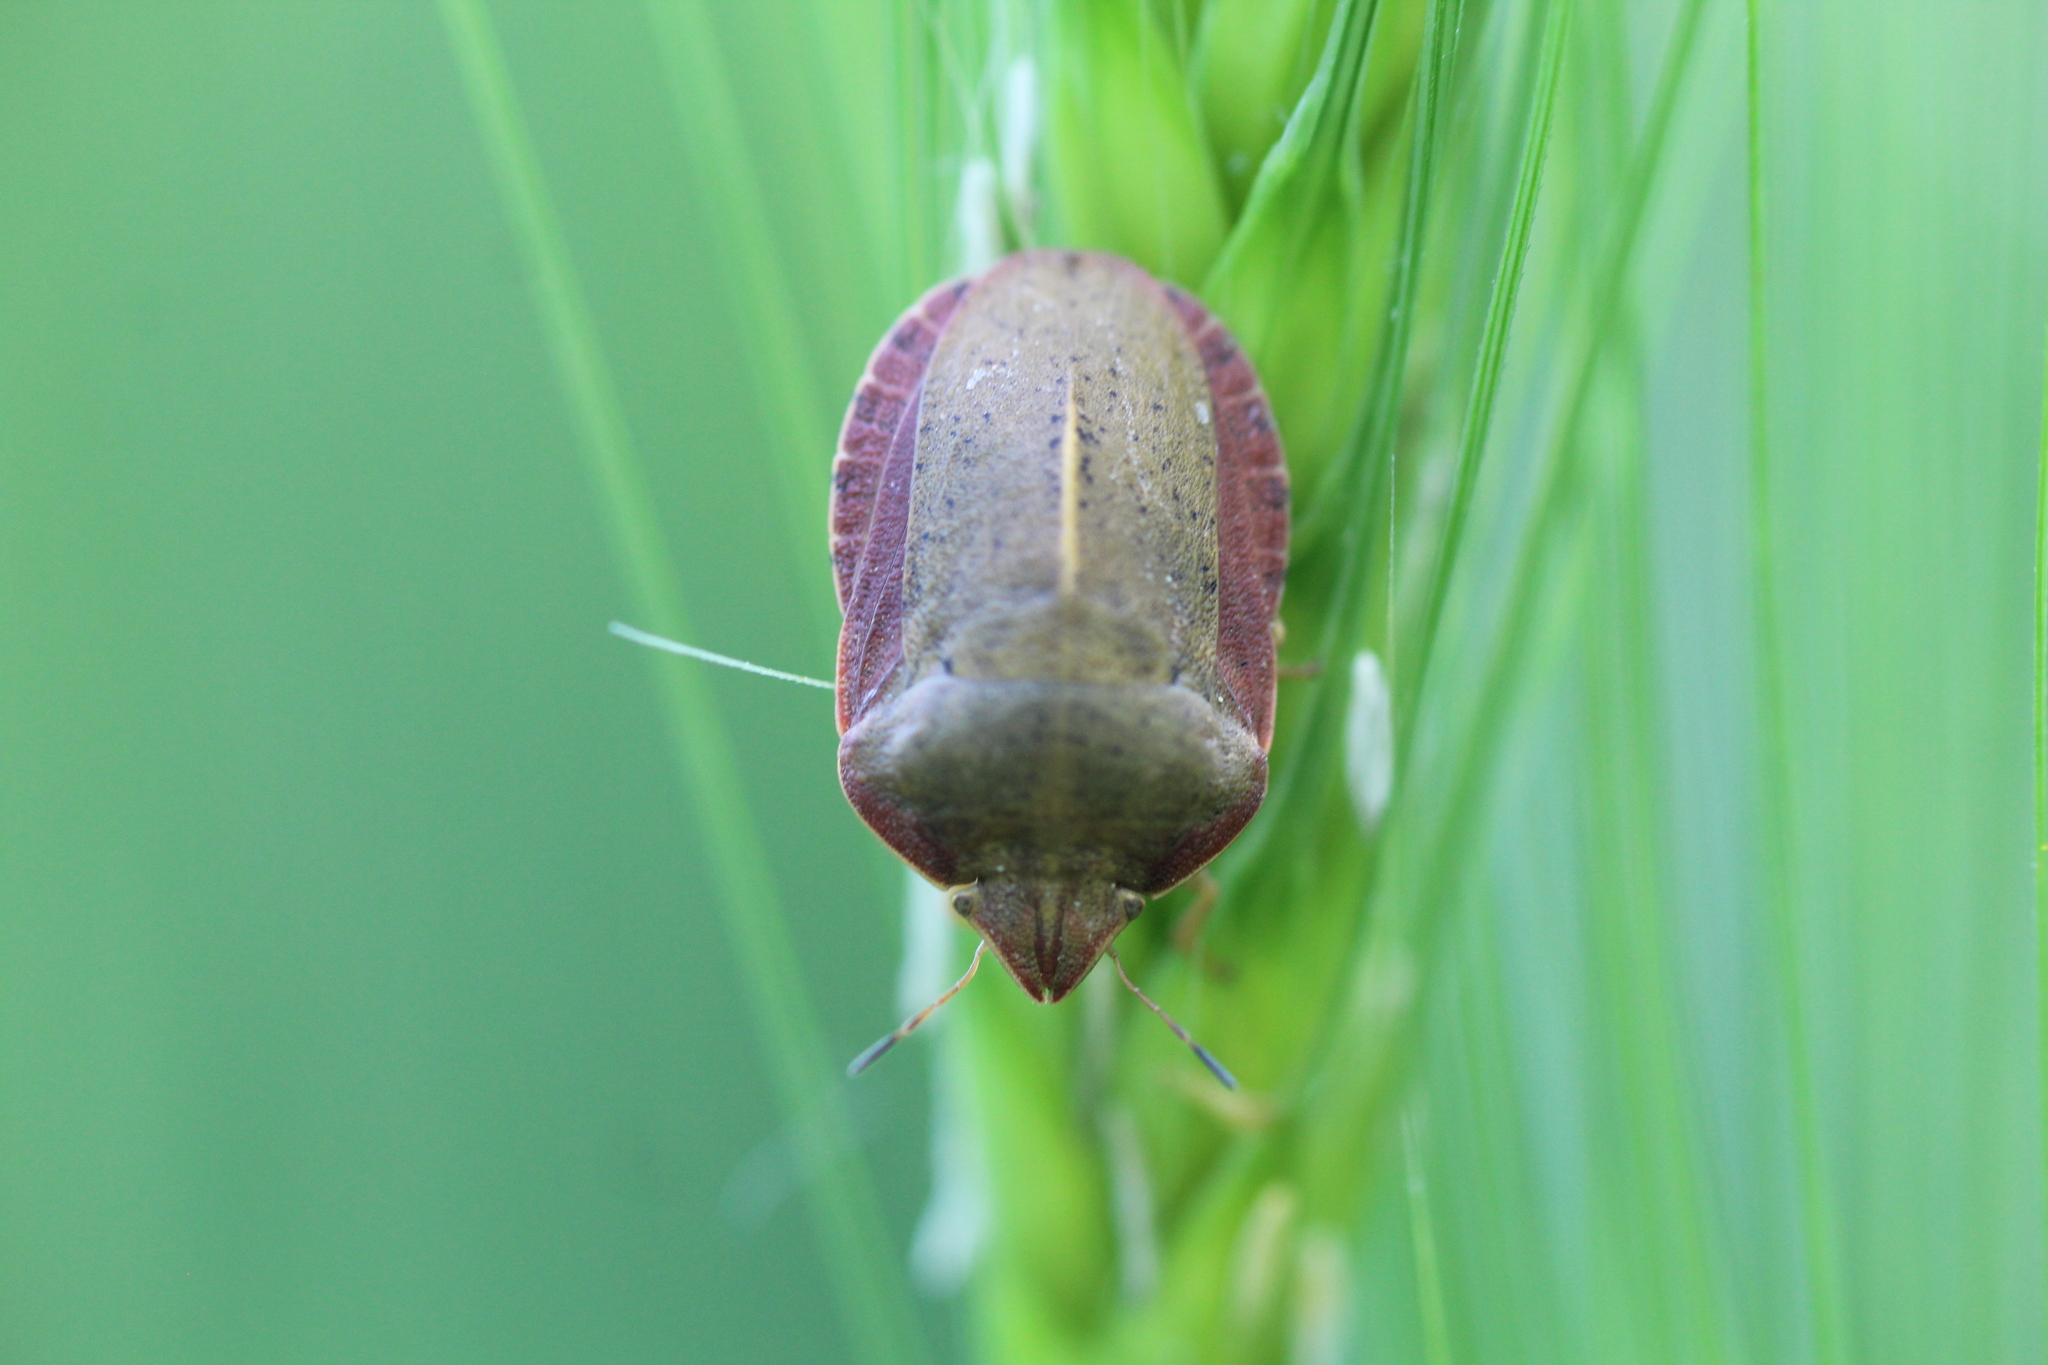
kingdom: Animalia
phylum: Arthropoda
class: Insecta
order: Hemiptera
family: Scutelleridae
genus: Eurygaster
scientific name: Eurygaster austriaca
